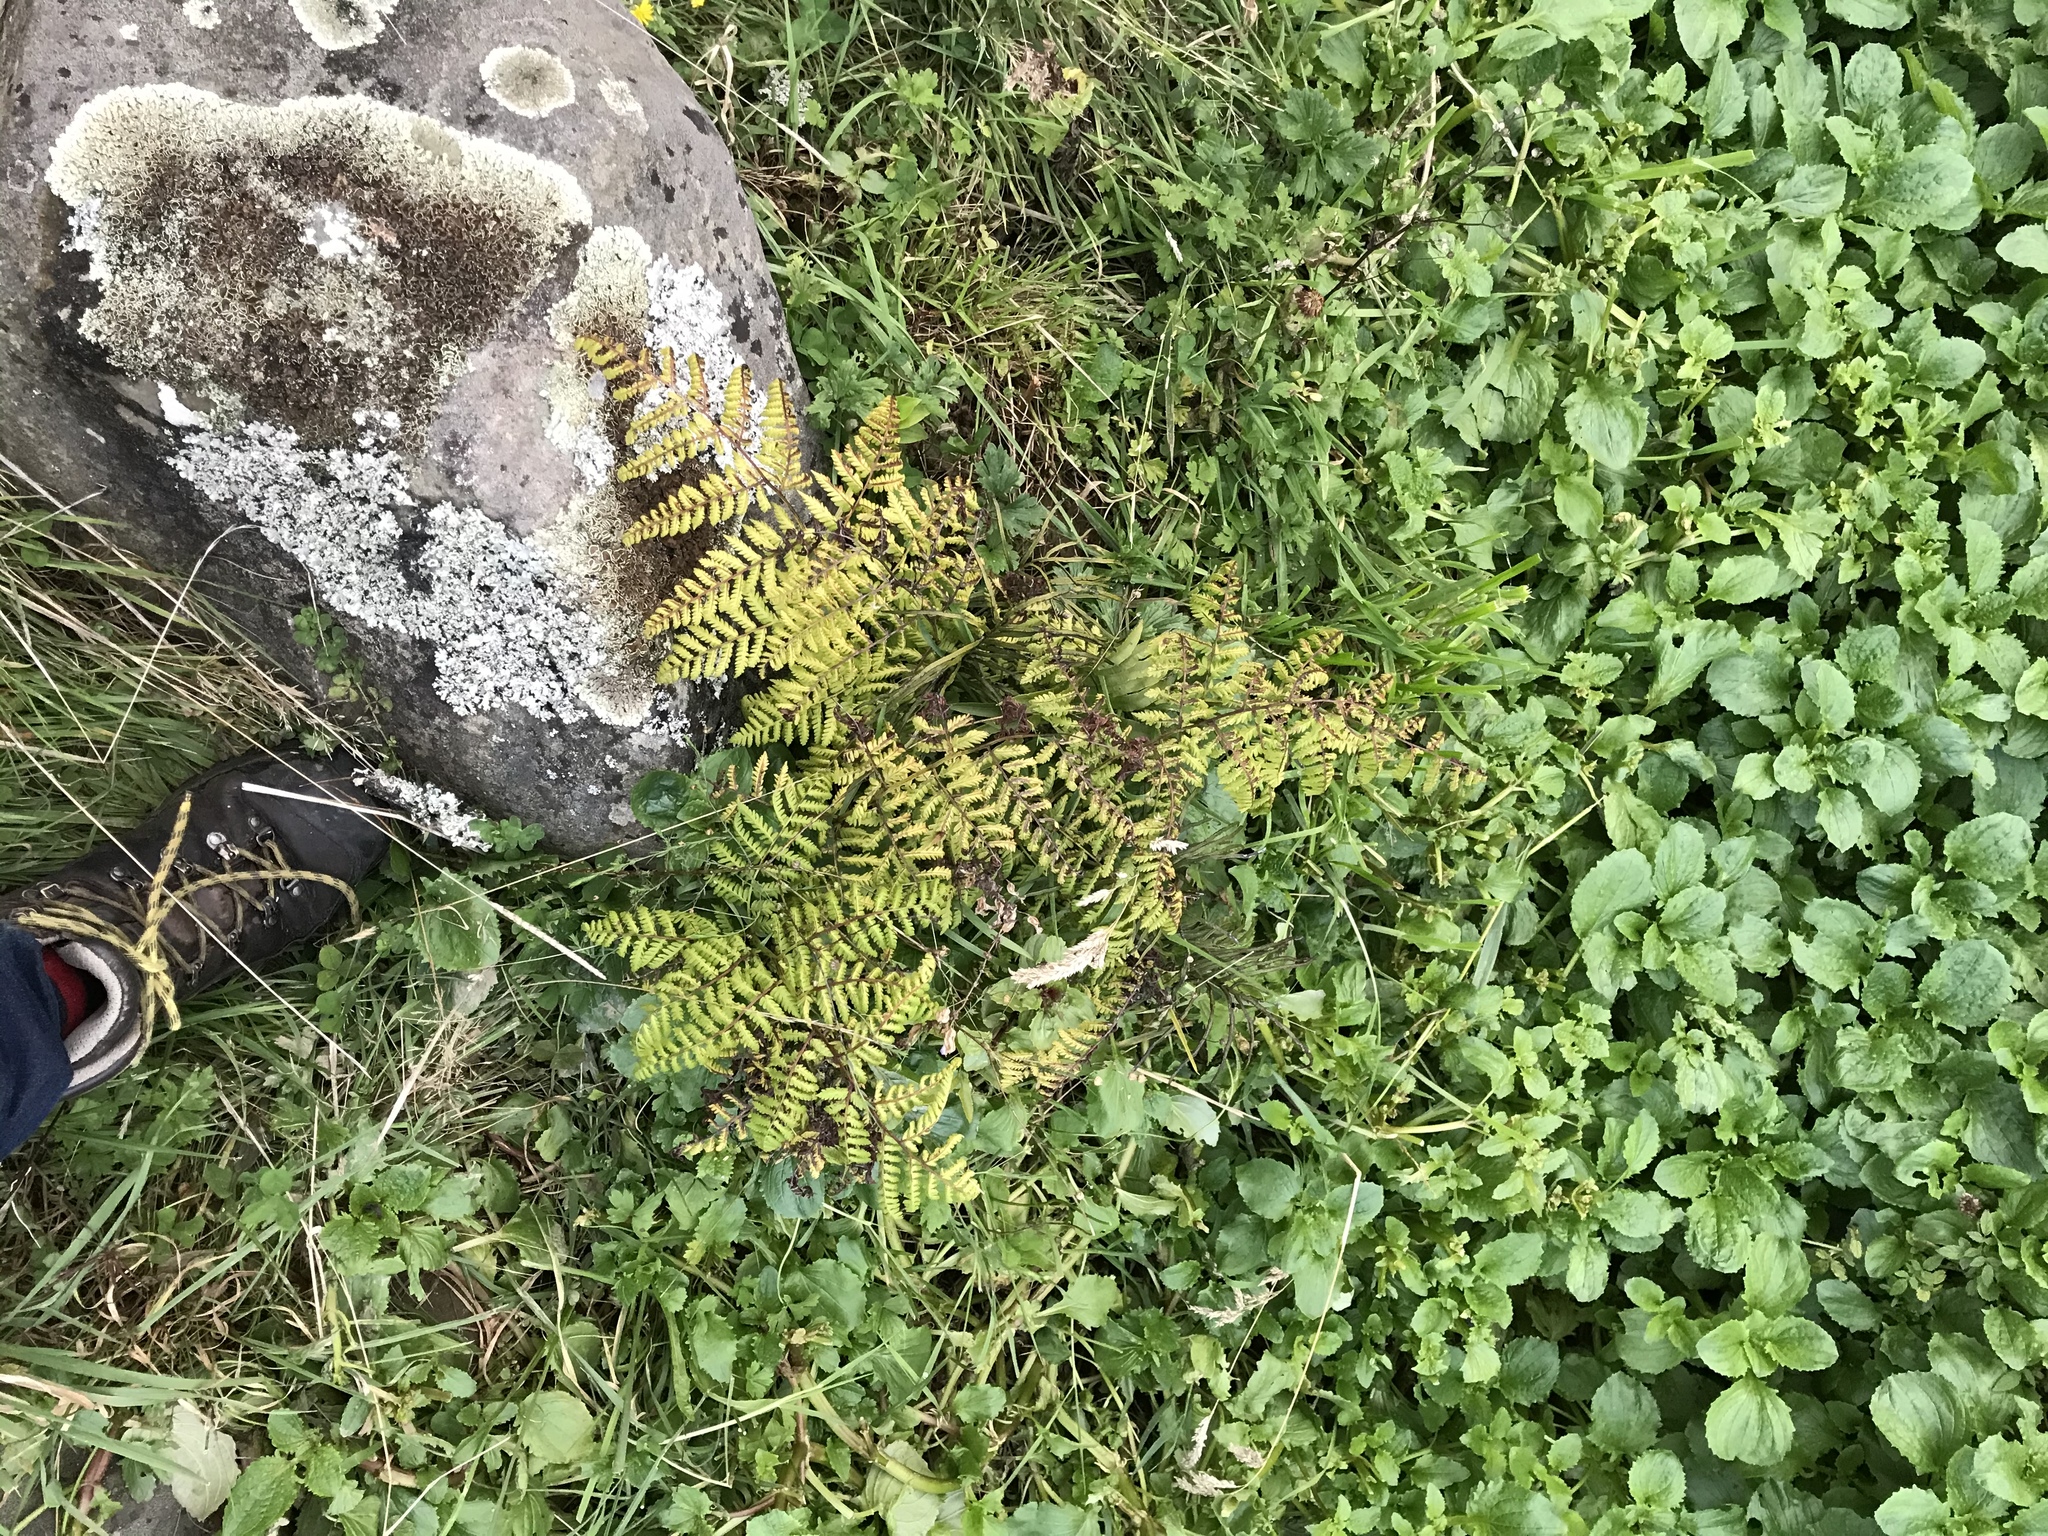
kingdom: Plantae
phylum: Tracheophyta
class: Polypodiopsida
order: Polypodiales
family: Athyriaceae
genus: Diplazium
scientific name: Diplazium australe
